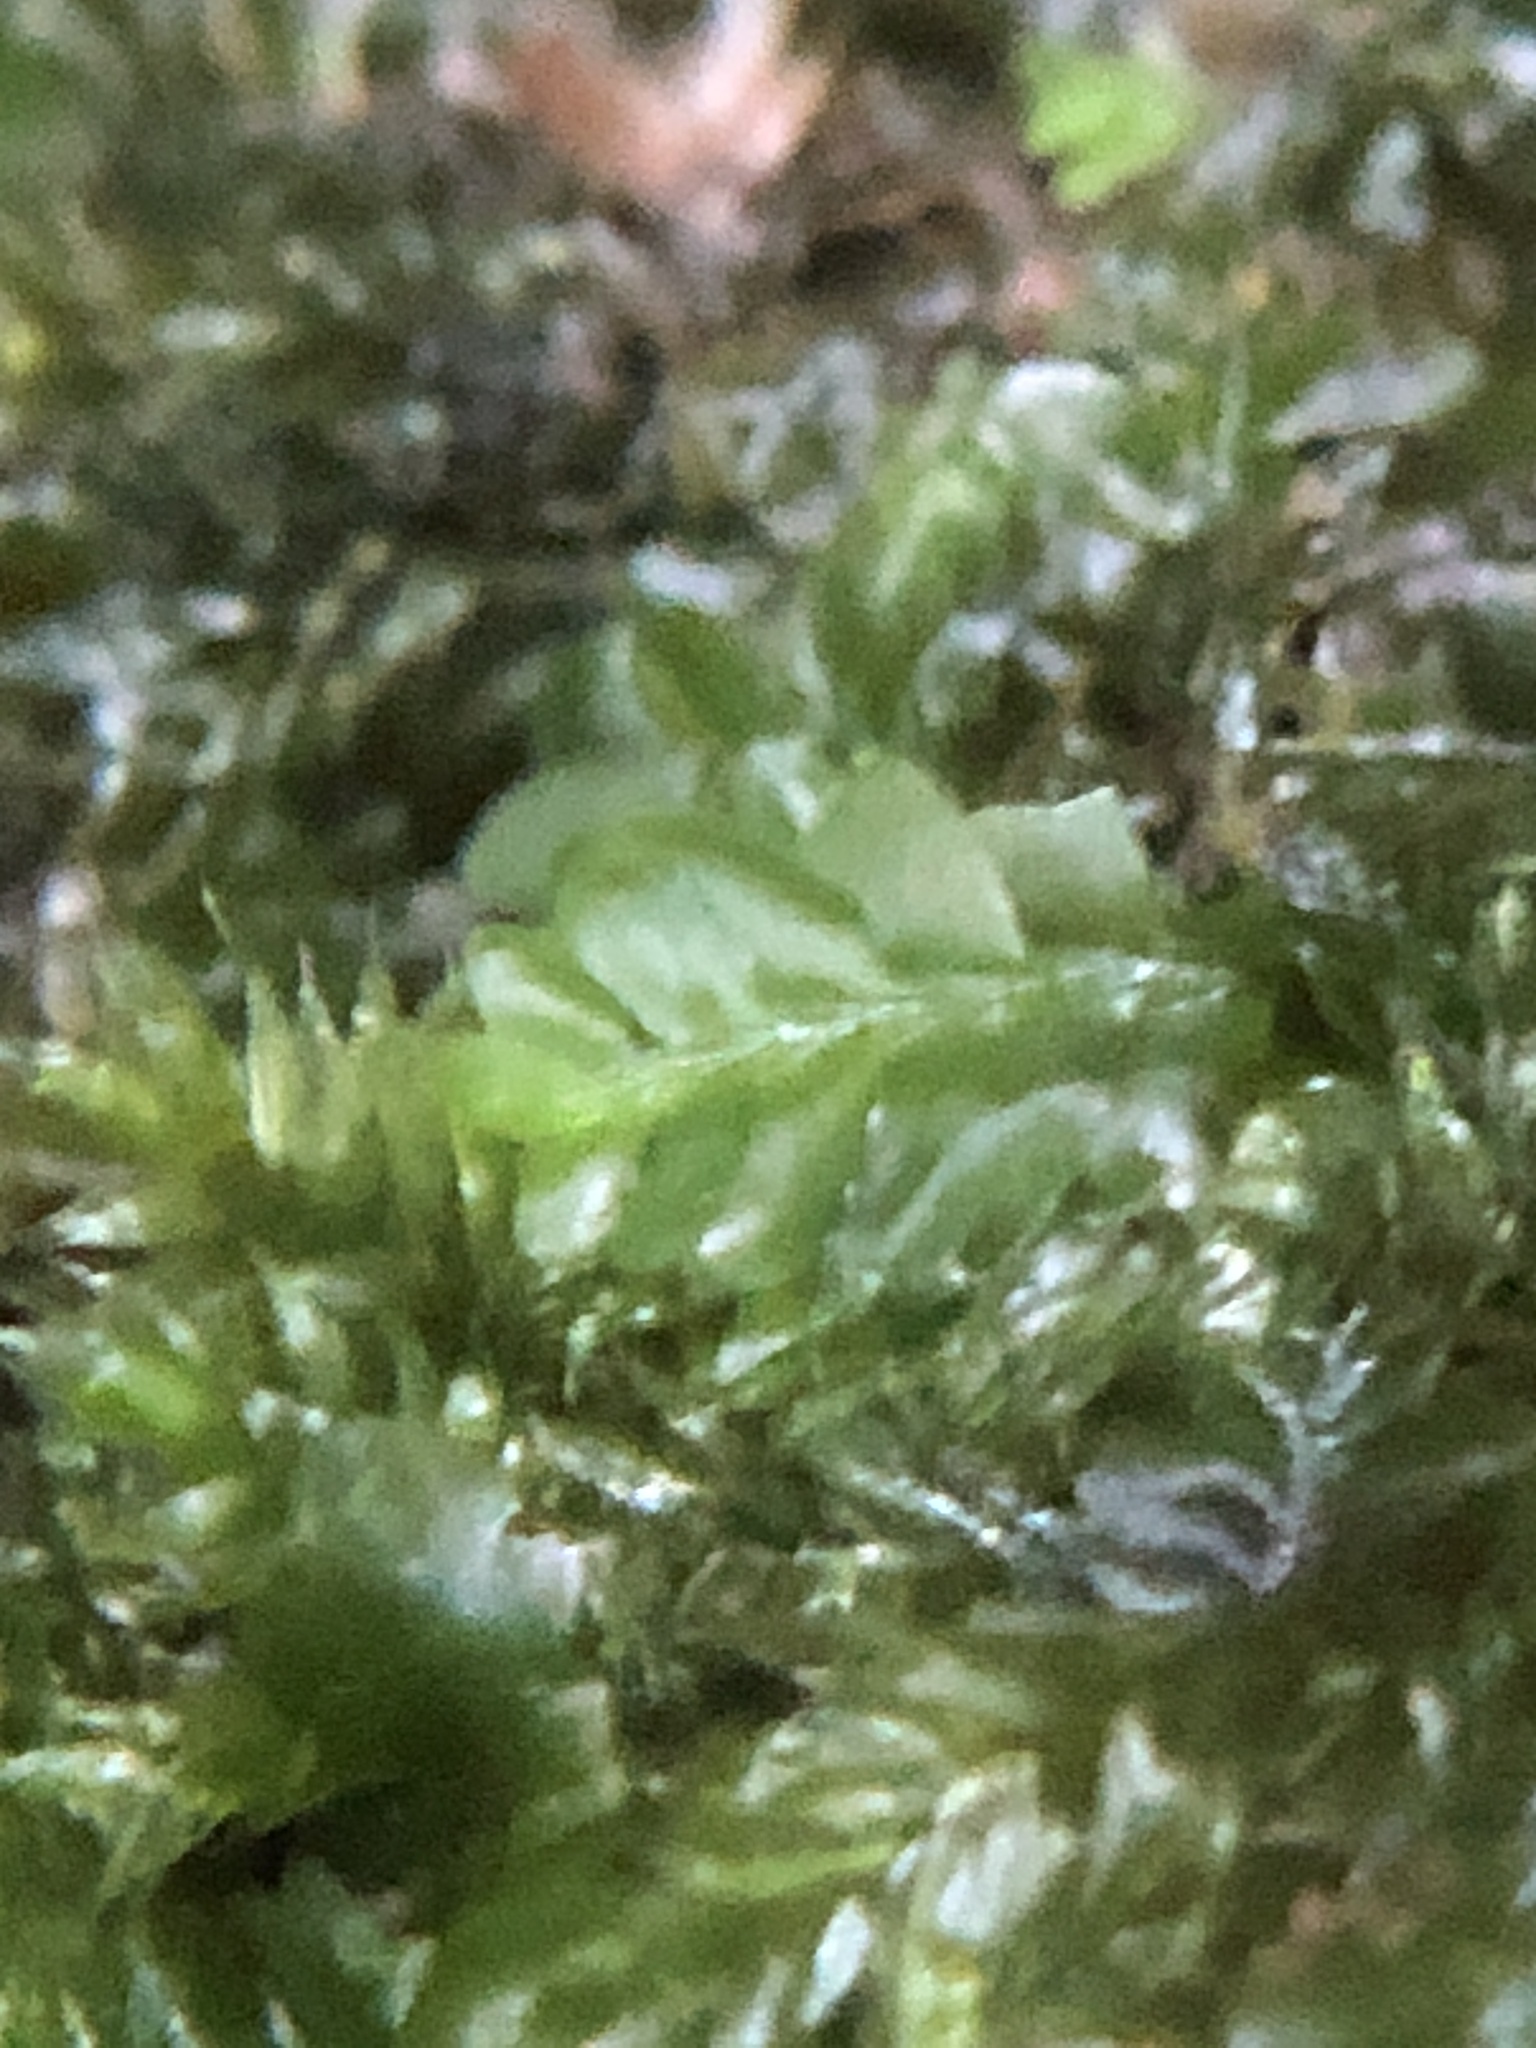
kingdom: Plantae
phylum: Marchantiophyta
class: Jungermanniopsida
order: Jungermanniales
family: Saccogynaceae
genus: Saccogyna
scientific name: Saccogyna viticulosa
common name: Straggling pouchwort
